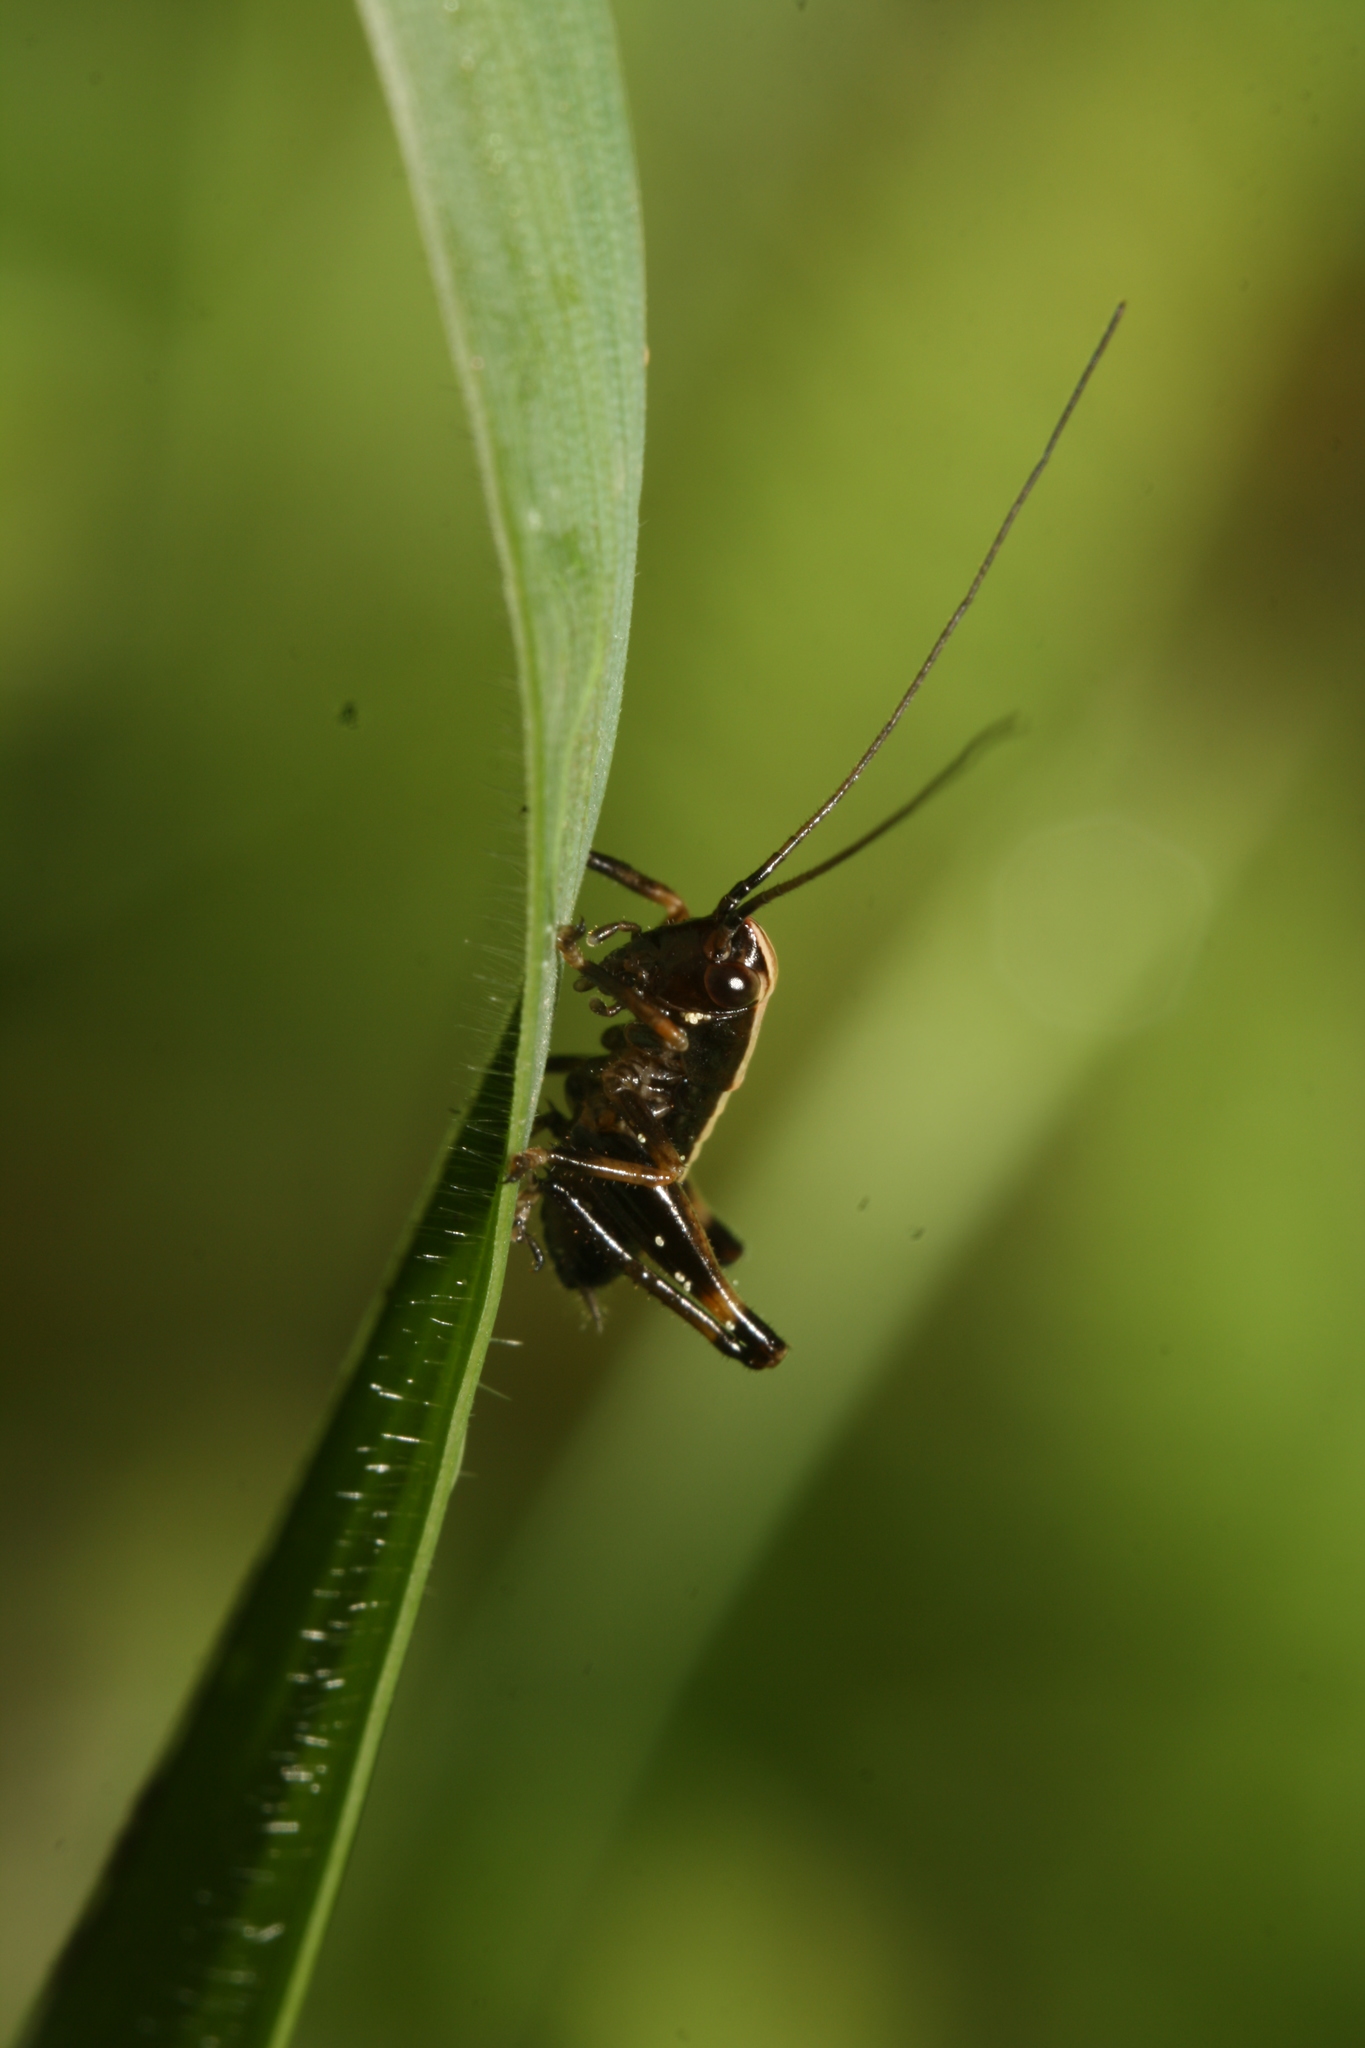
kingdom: Animalia
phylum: Arthropoda
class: Insecta
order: Orthoptera
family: Tettigoniidae
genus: Pholidoptera
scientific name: Pholidoptera griseoaptera
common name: Dark bush-cricket
